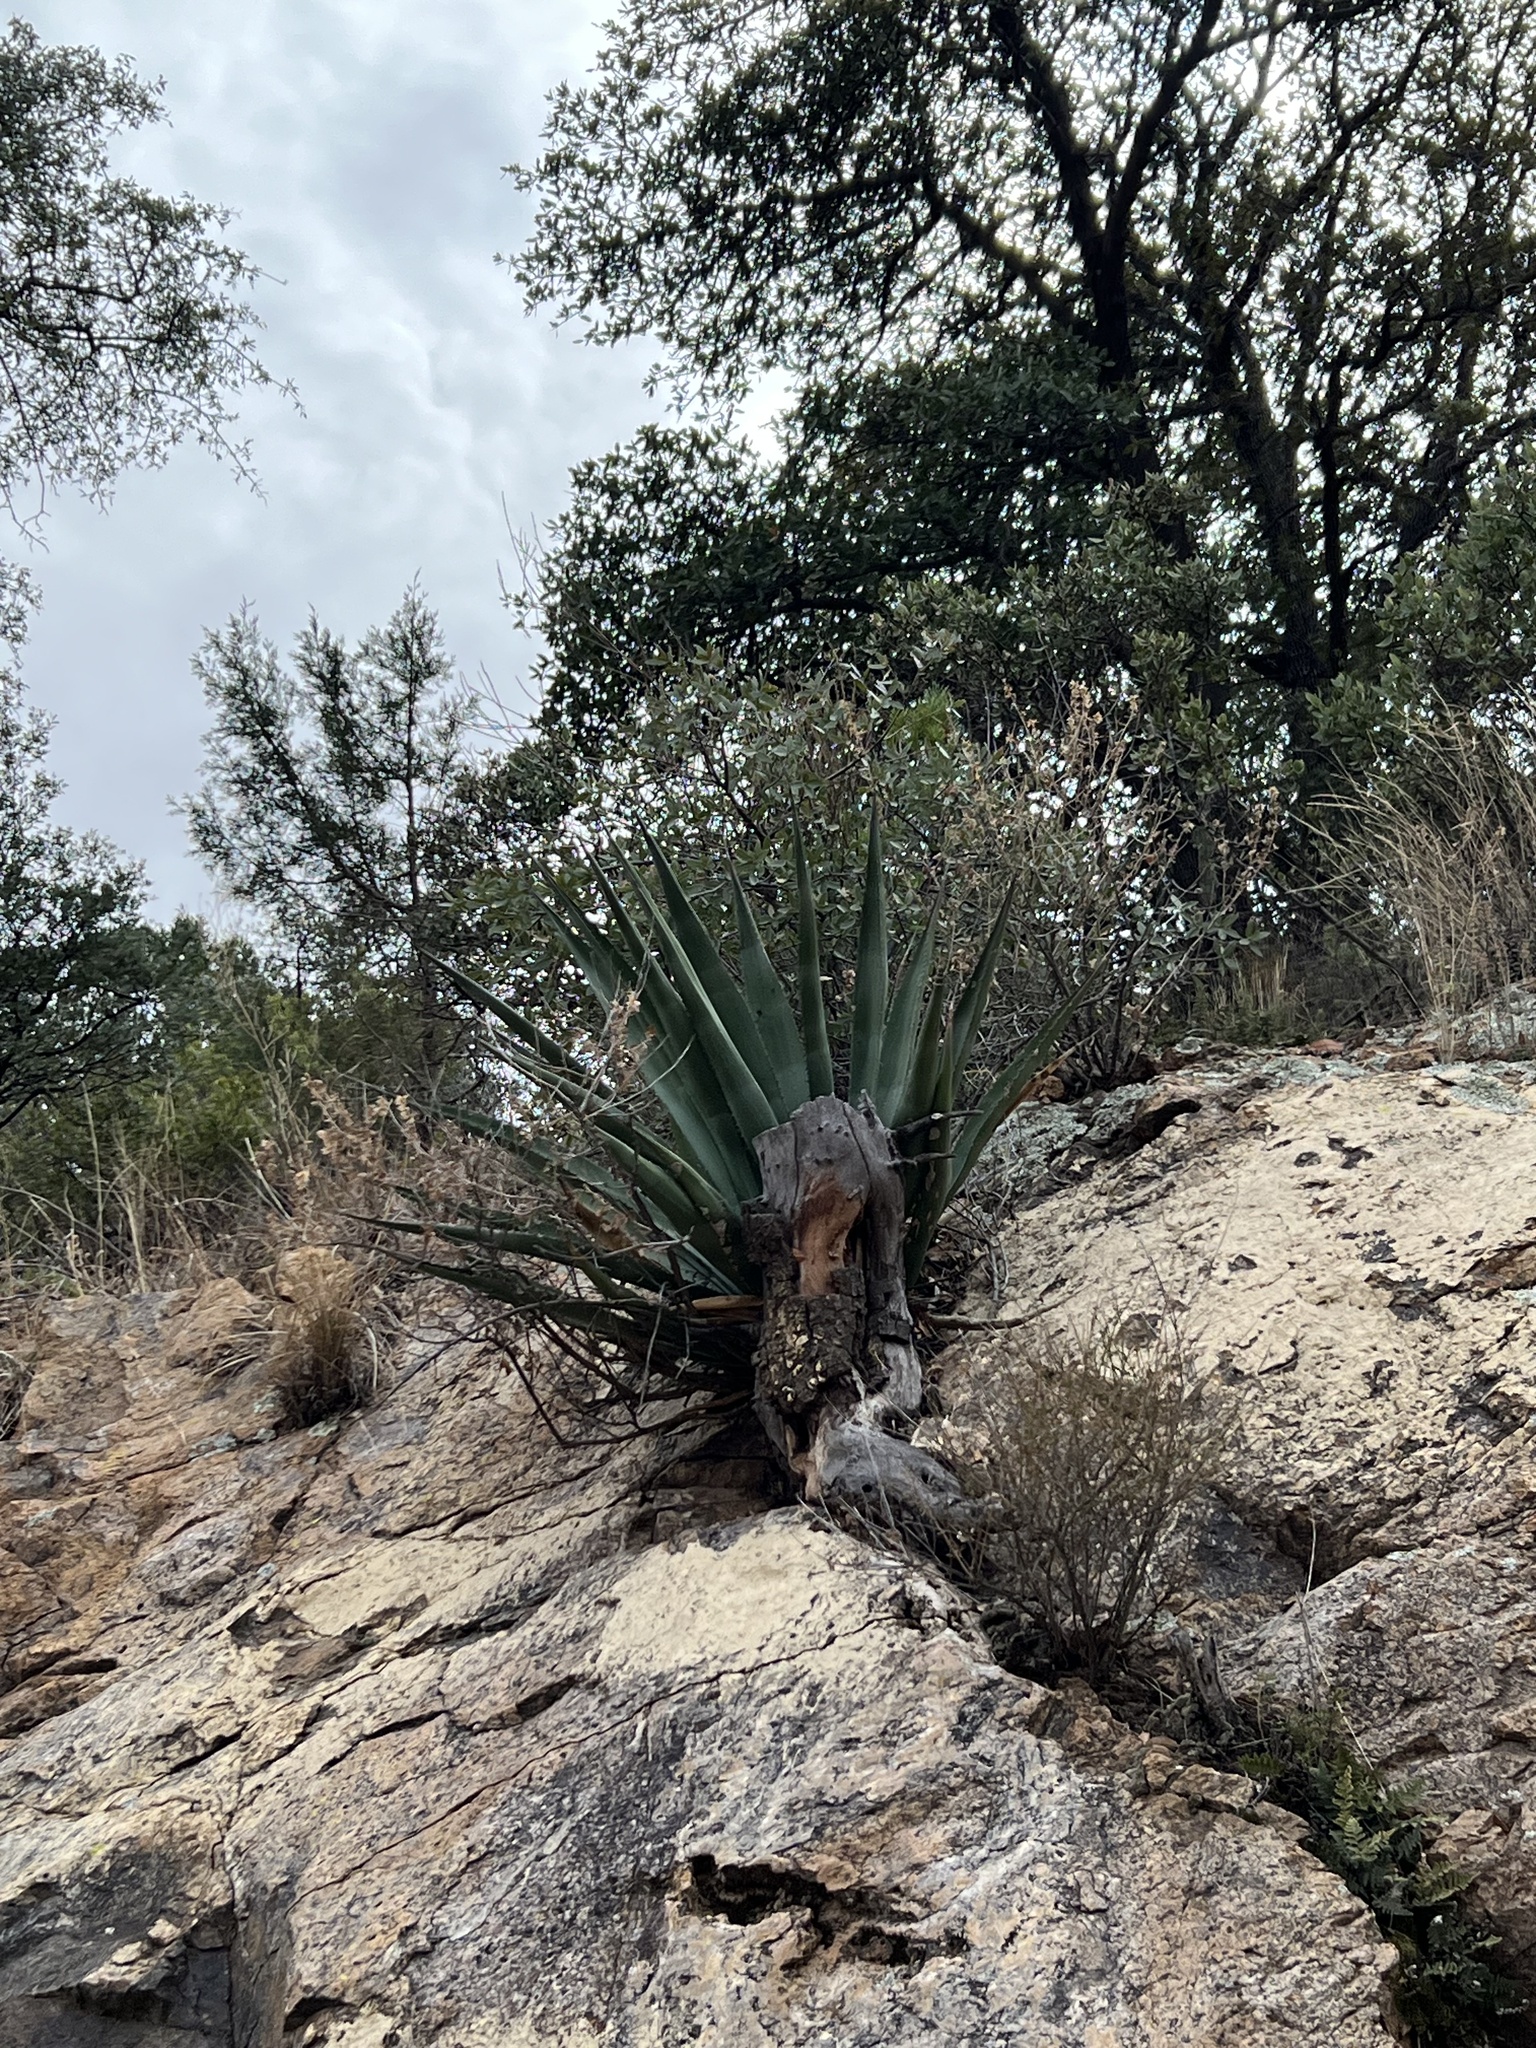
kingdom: Plantae
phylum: Tracheophyta
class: Liliopsida
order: Asparagales
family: Asparagaceae
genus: Agave
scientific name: Agave palmeri
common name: Palmer agave
